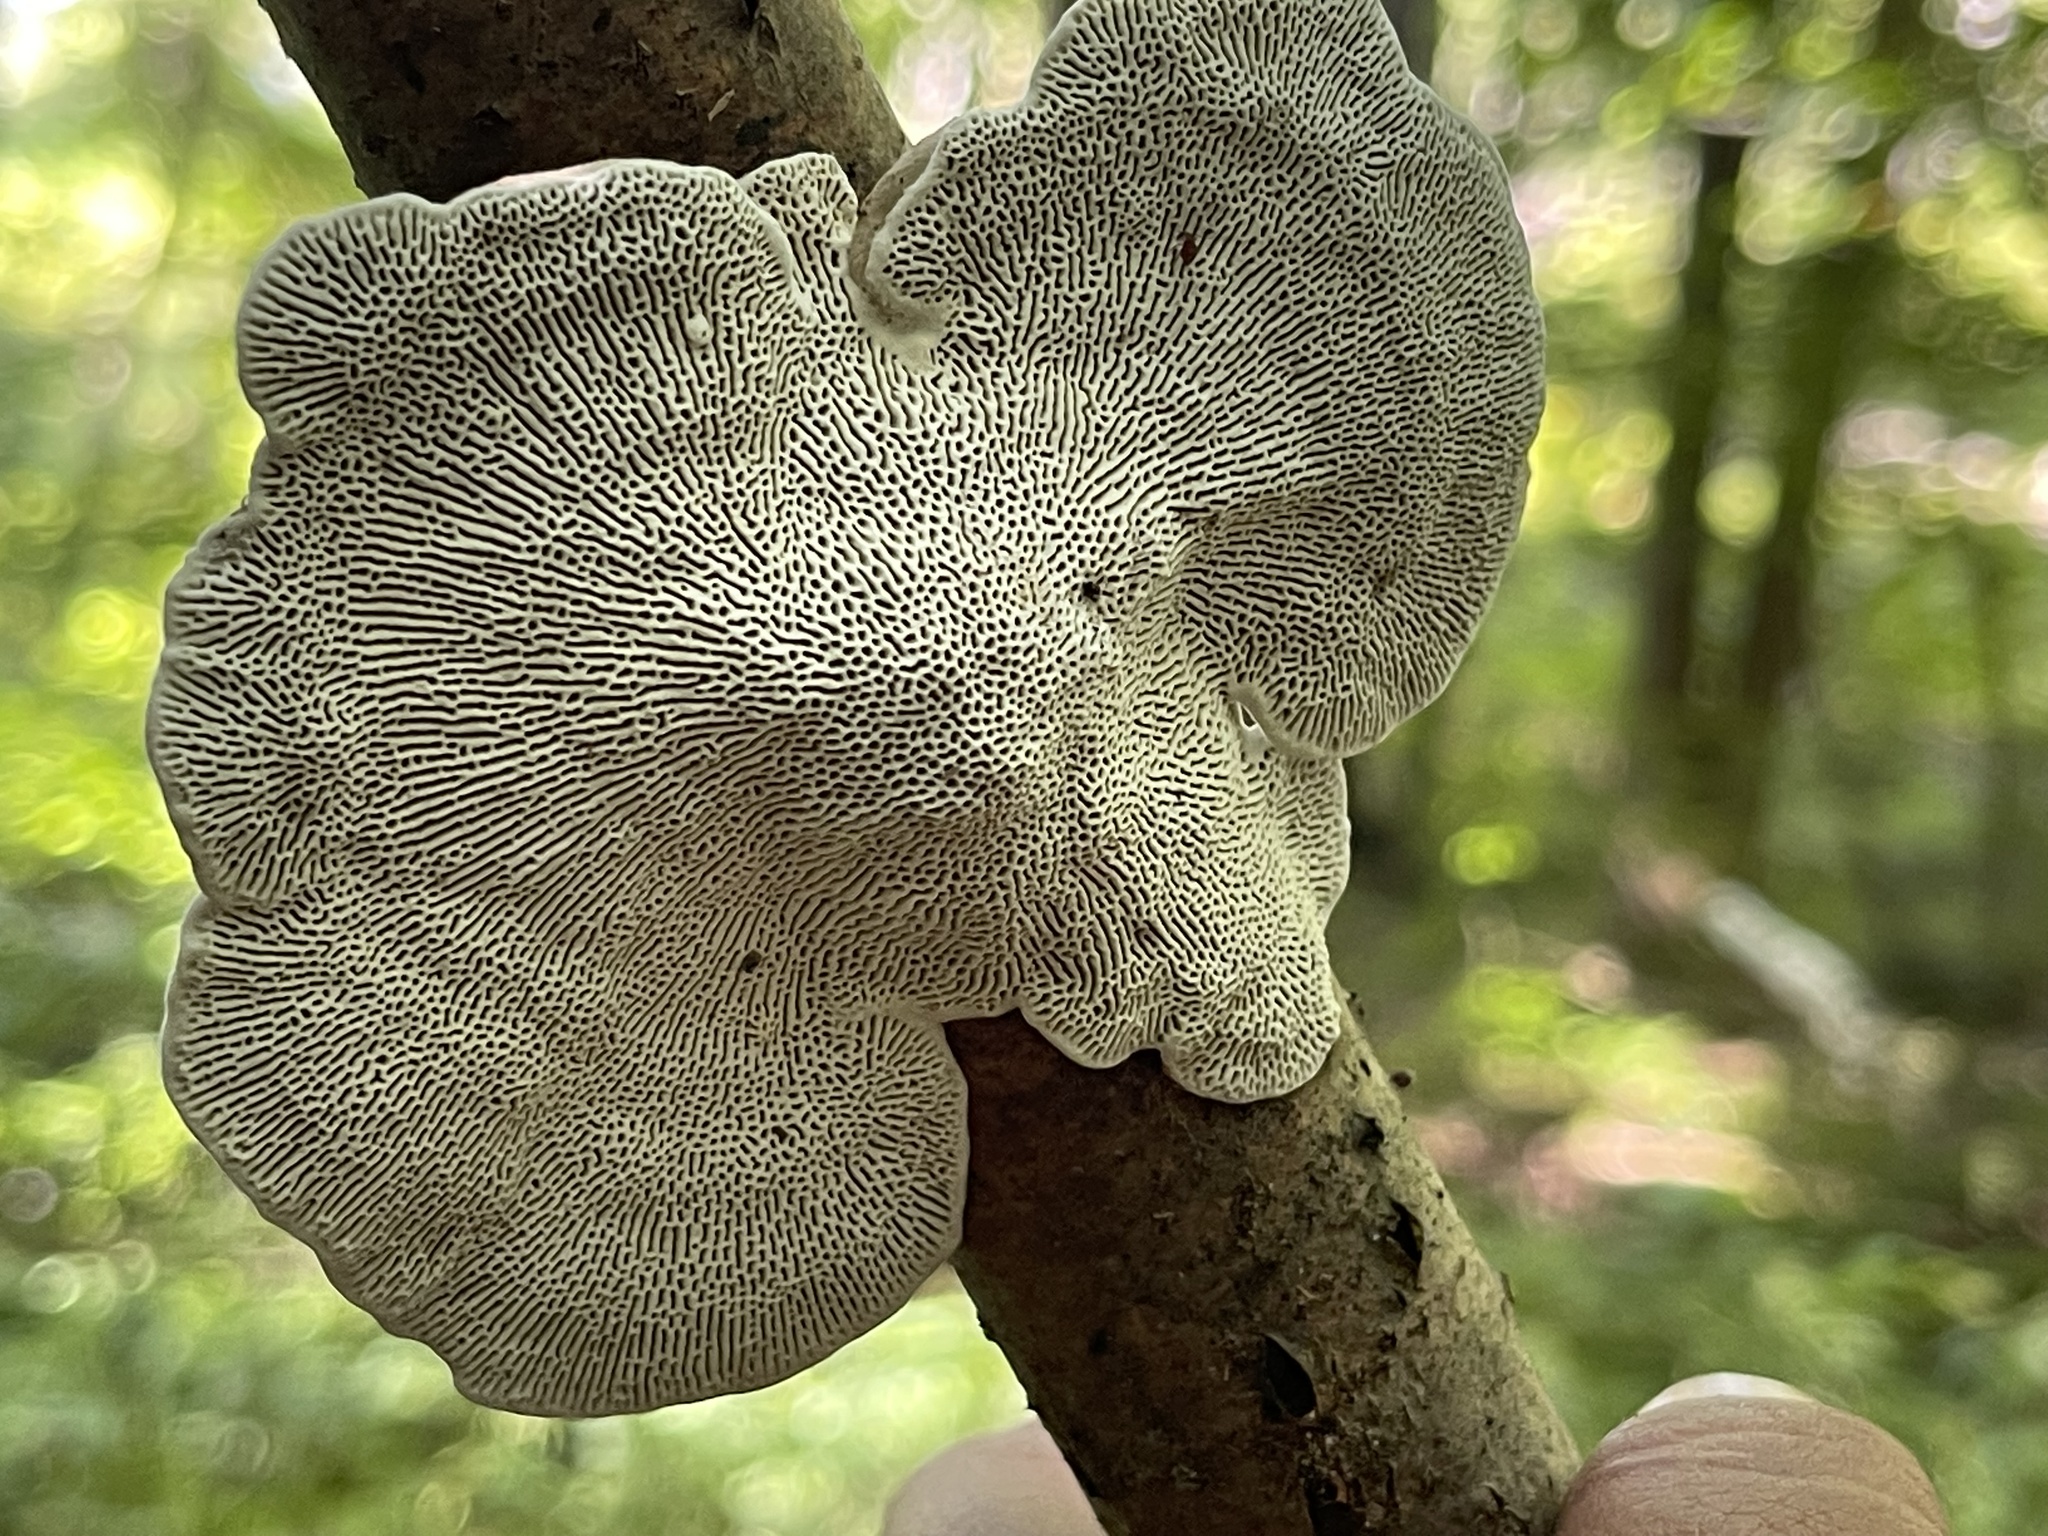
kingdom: Fungi
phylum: Basidiomycota
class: Agaricomycetes
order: Polyporales
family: Polyporaceae
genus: Daedaleopsis
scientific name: Daedaleopsis confragosa
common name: Blushing bracket
